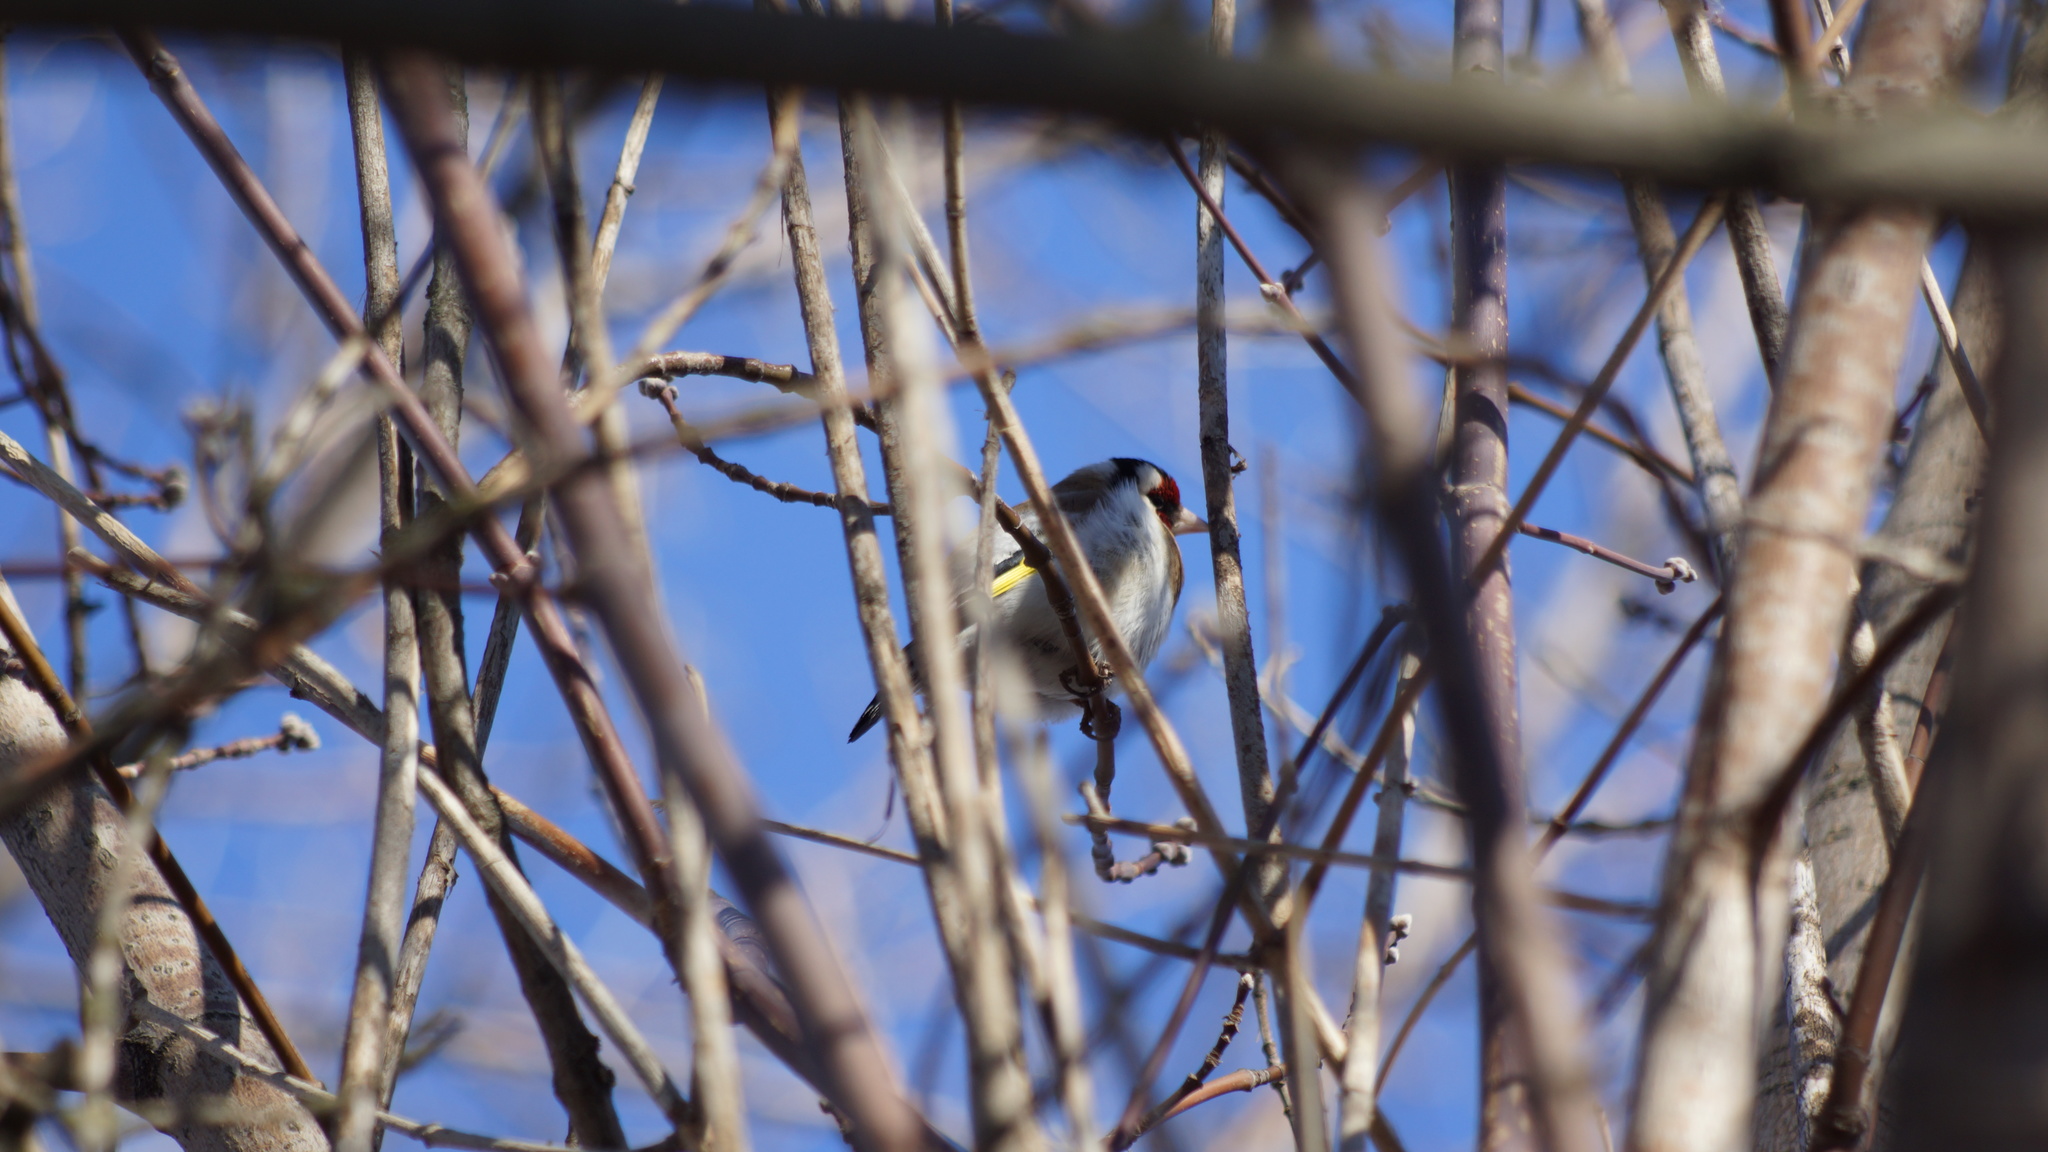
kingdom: Animalia
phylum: Chordata
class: Aves
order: Passeriformes
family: Fringillidae
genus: Carduelis
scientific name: Carduelis carduelis
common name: European goldfinch
